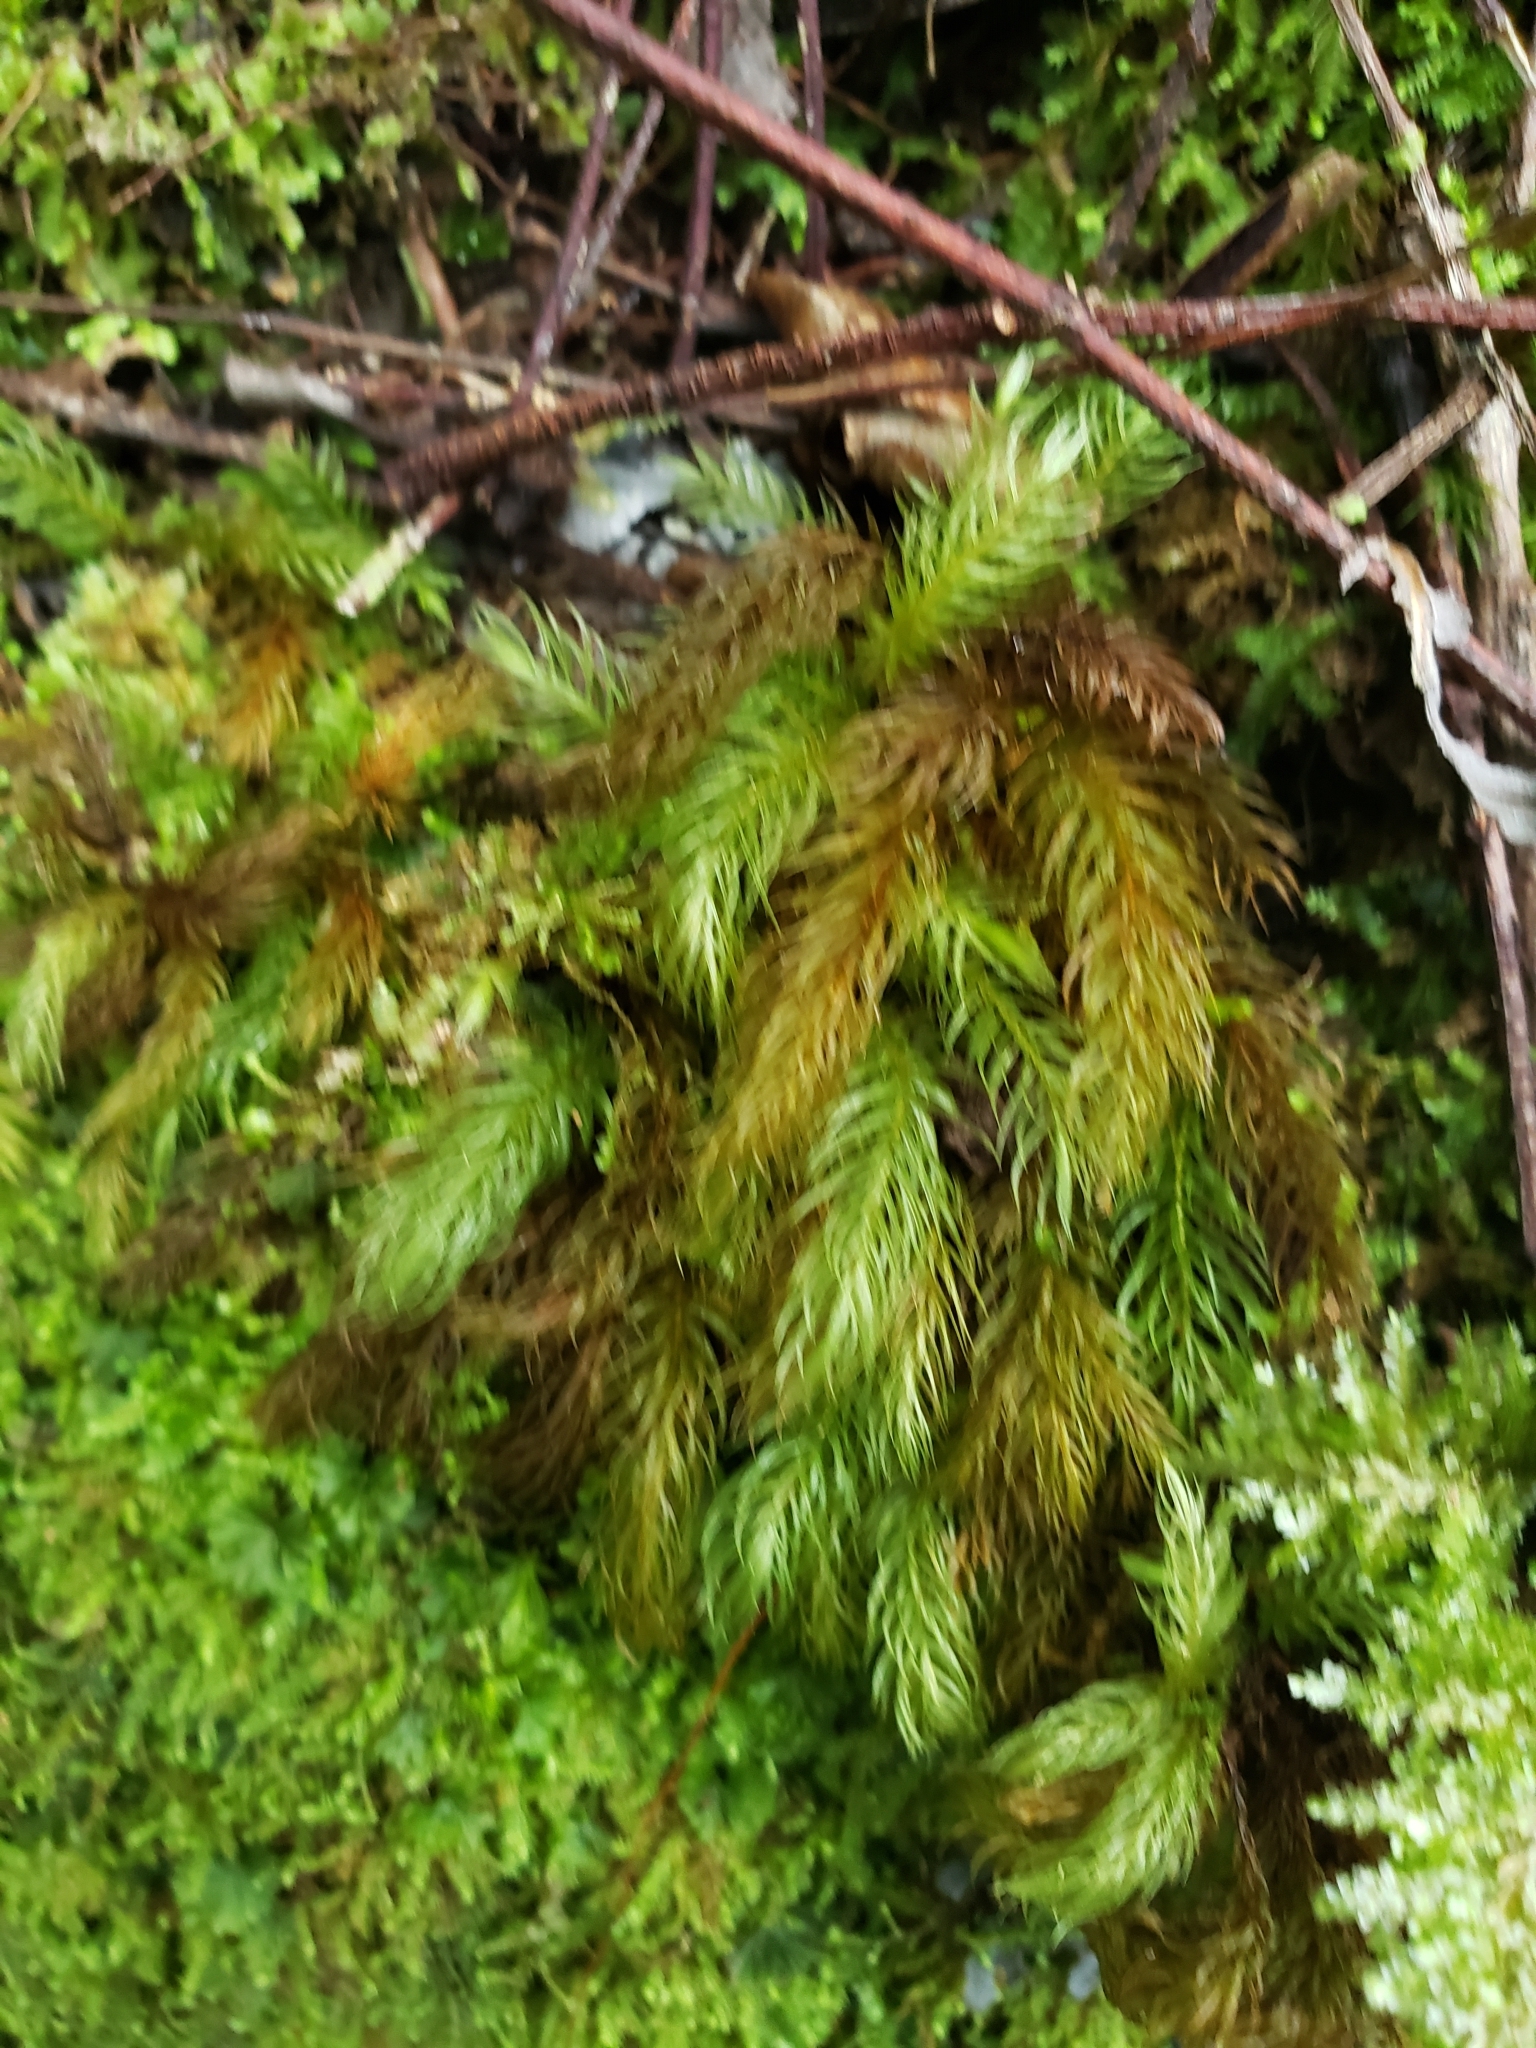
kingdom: Plantae
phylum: Bryophyta
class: Bryopsida
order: Rhizogoniales
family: Calomniaceae
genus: Pyrrhobryum
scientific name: Pyrrhobryum spiniforme
